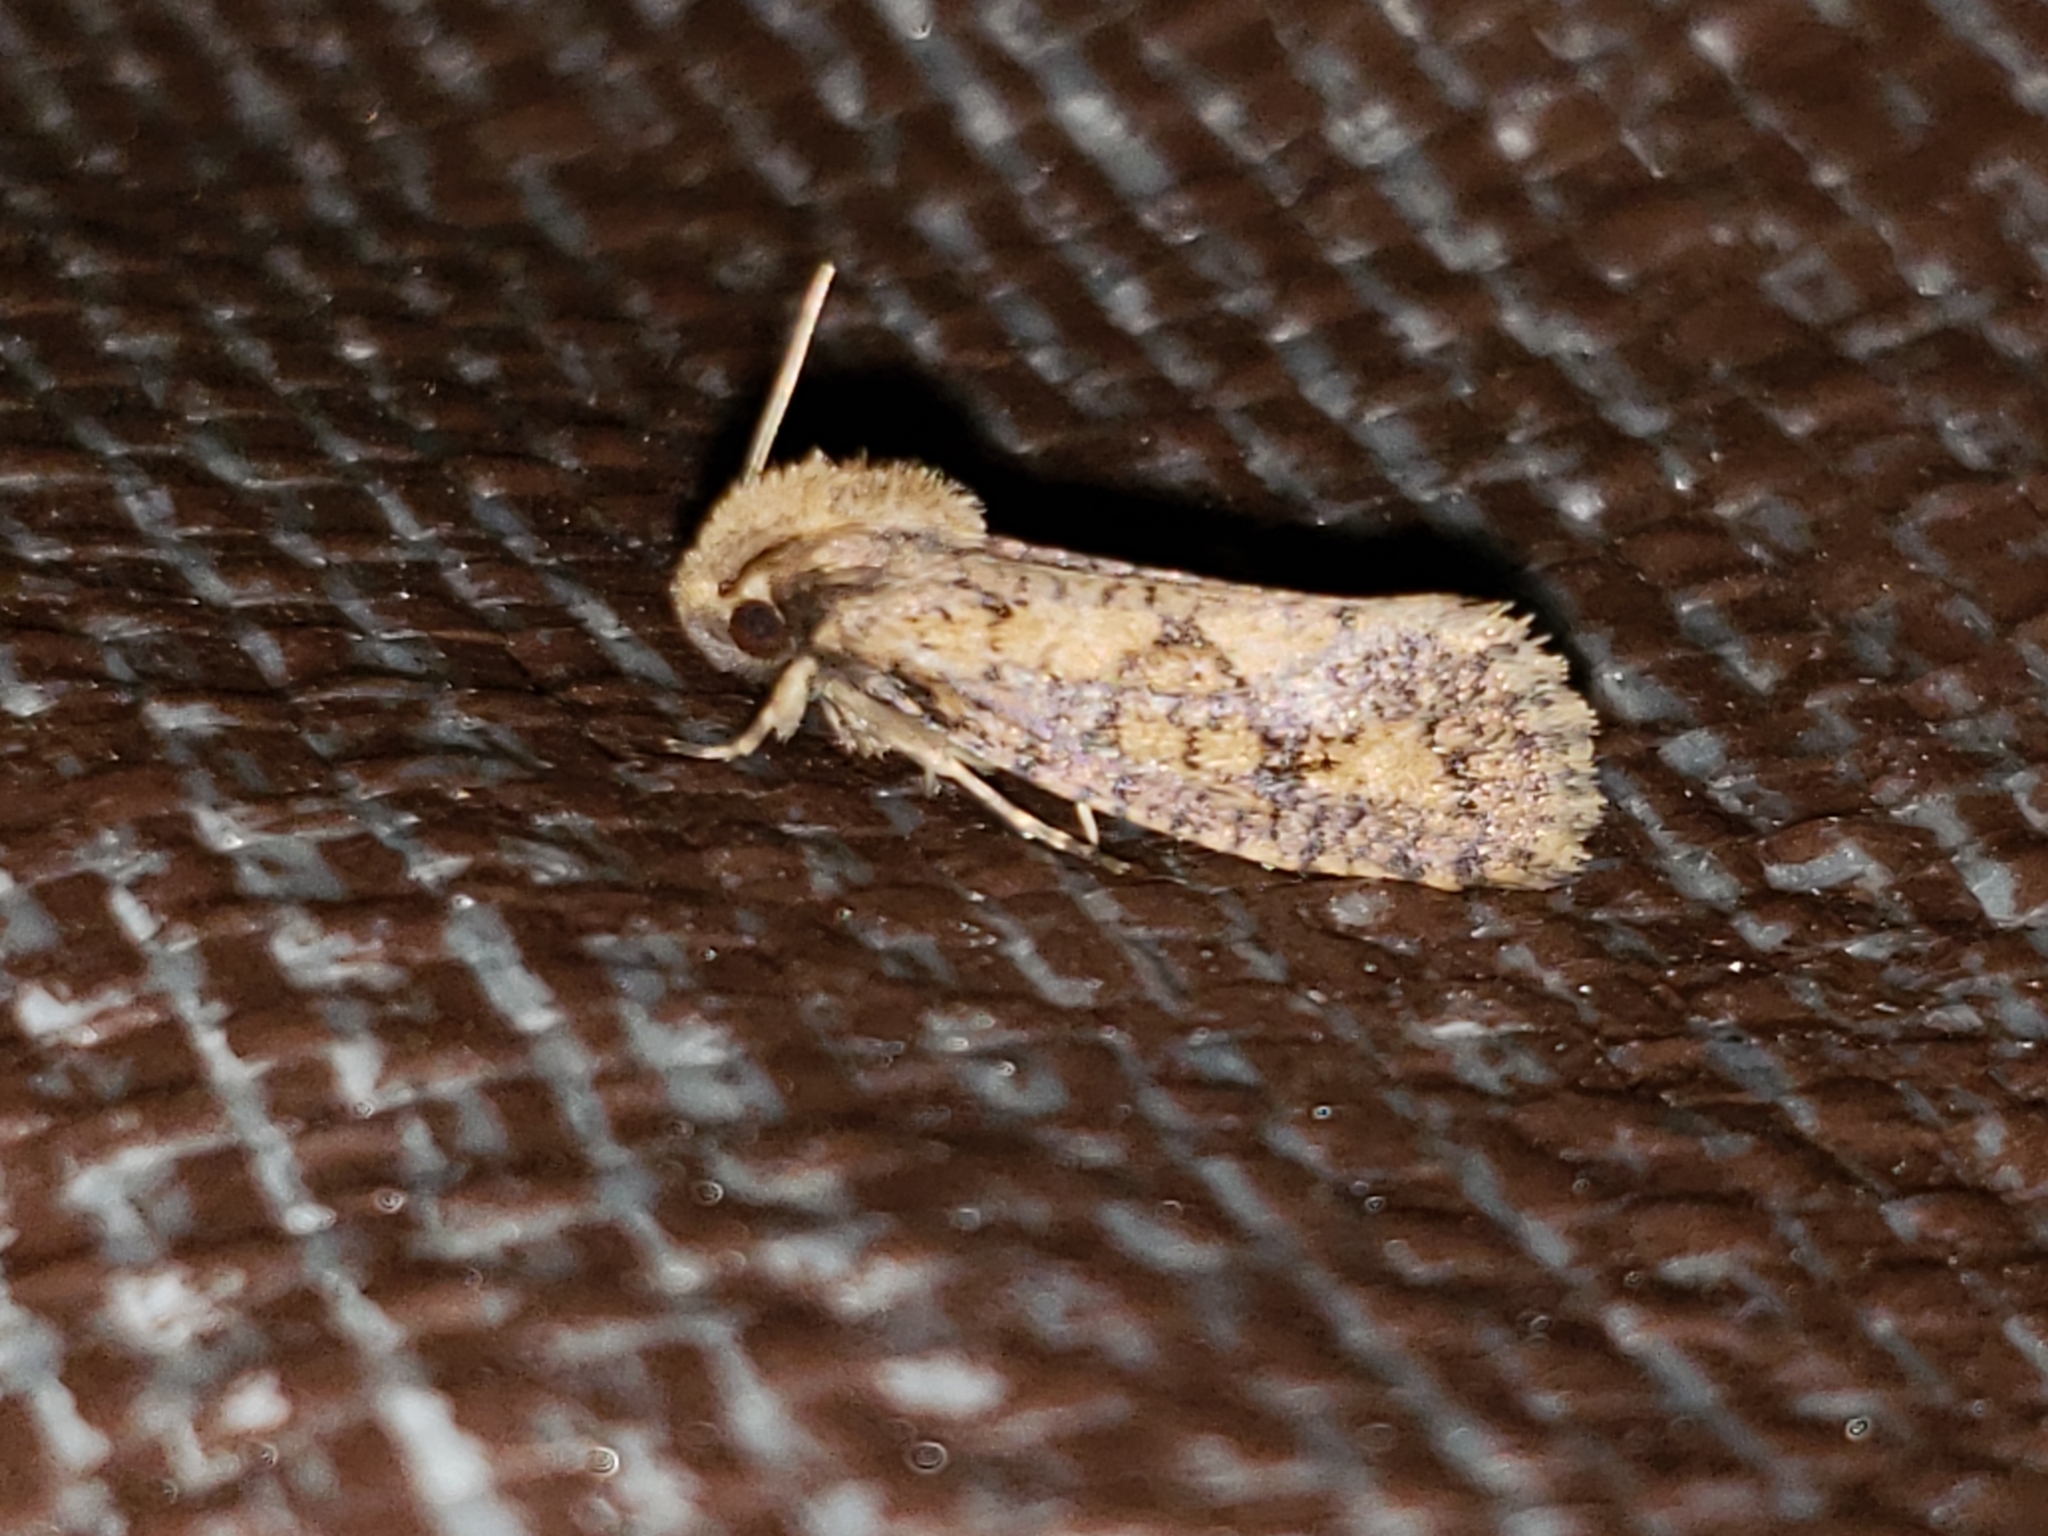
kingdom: Animalia
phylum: Arthropoda
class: Insecta
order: Lepidoptera
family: Tineidae
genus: Acrolophus
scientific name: Acrolophus popeanella
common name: Clemens' grass tubeworm moth
